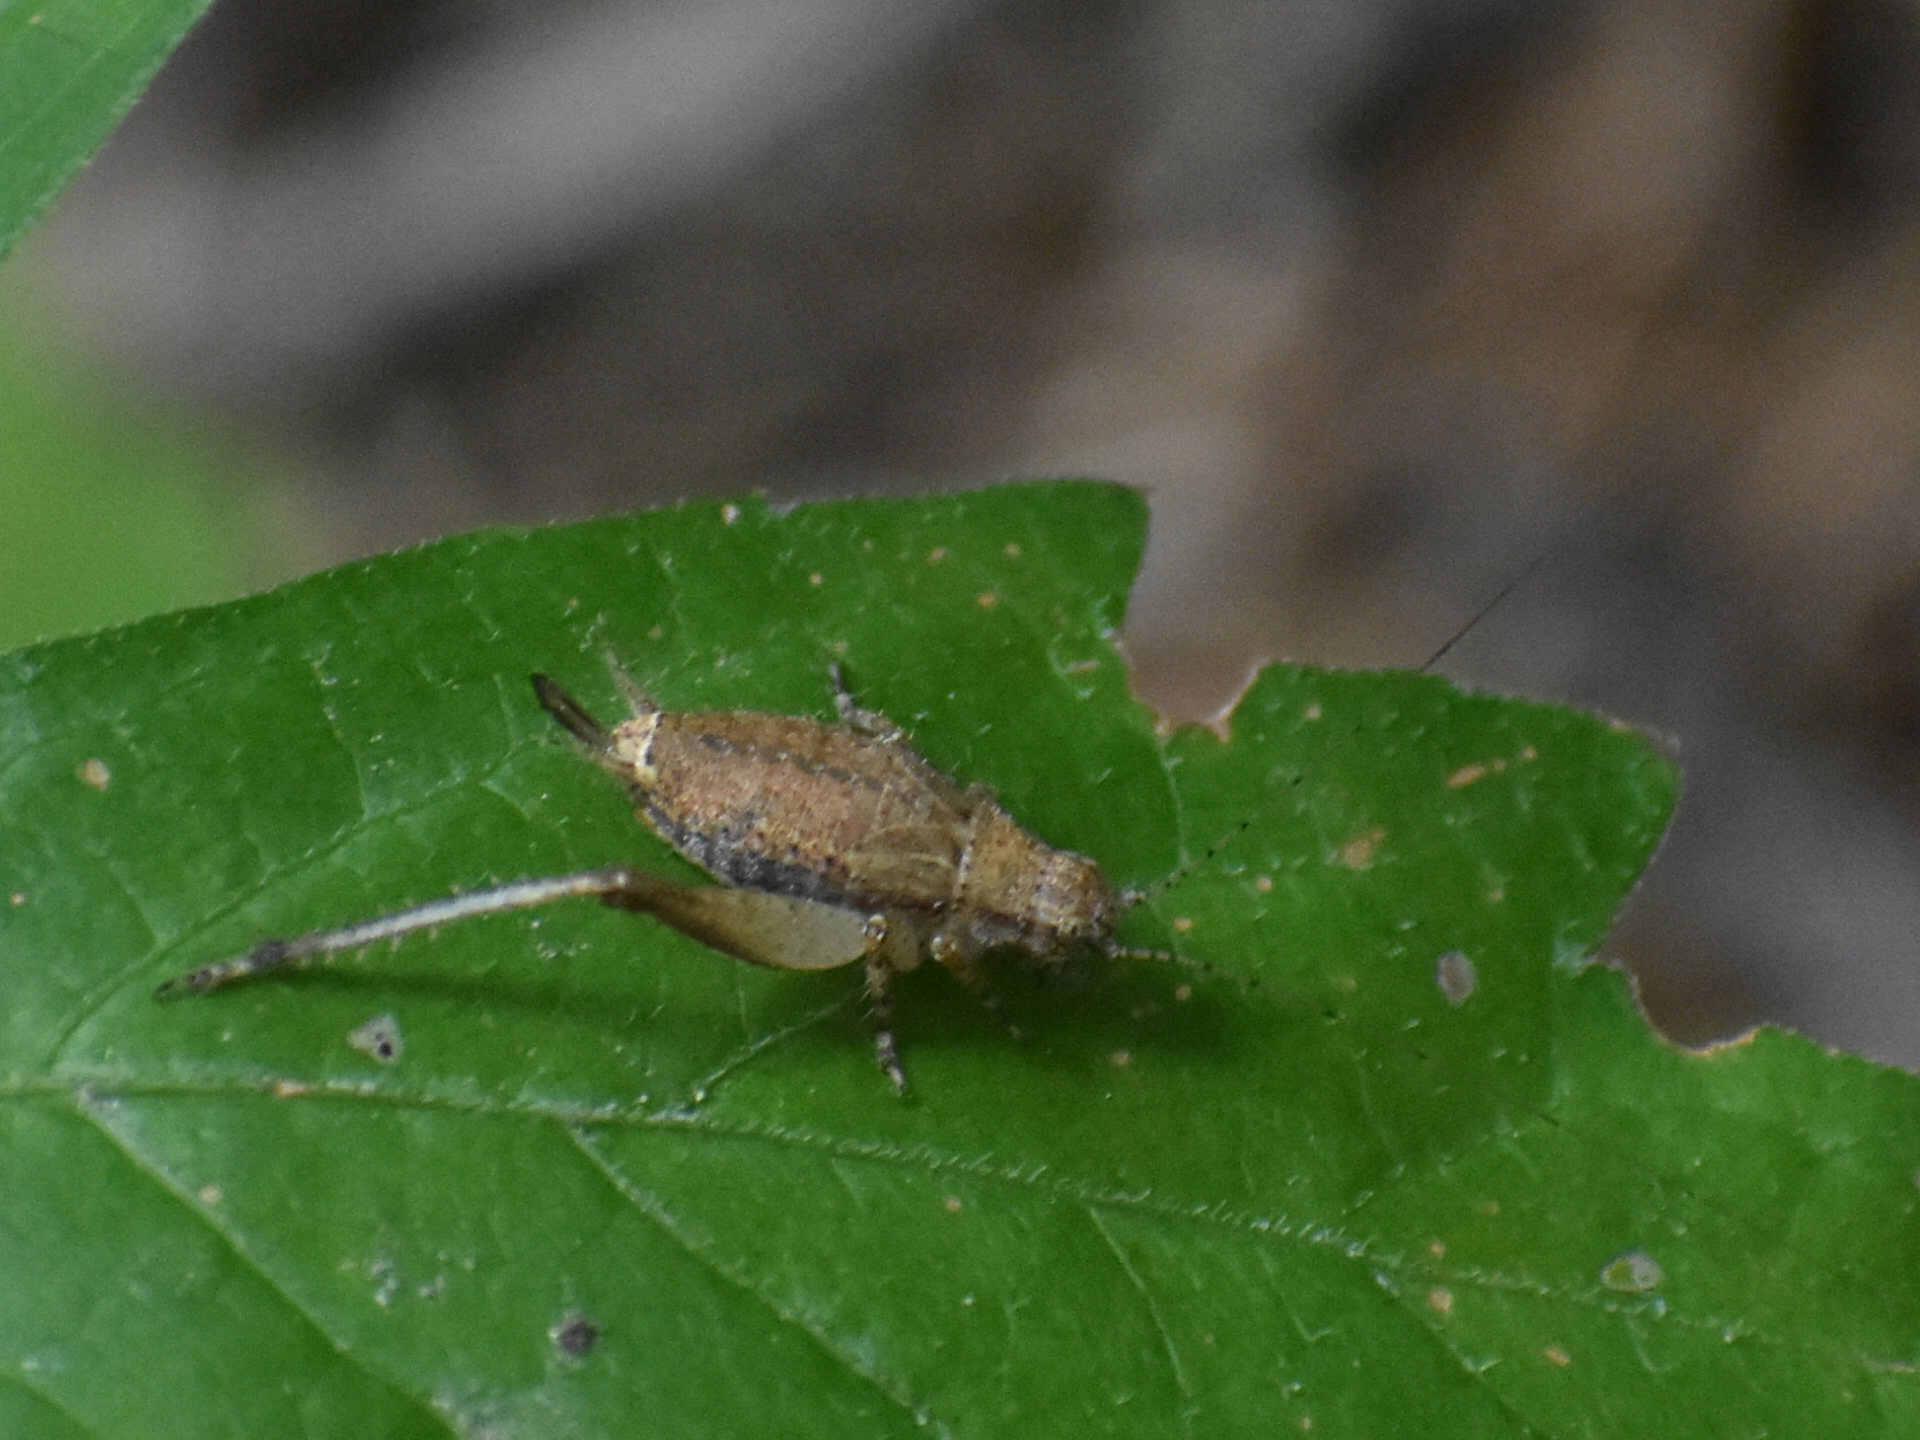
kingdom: Animalia
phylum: Arthropoda
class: Insecta
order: Orthoptera
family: Gryllidae
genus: Hapithus
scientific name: Hapithus agitator
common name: Restless bush cricket
